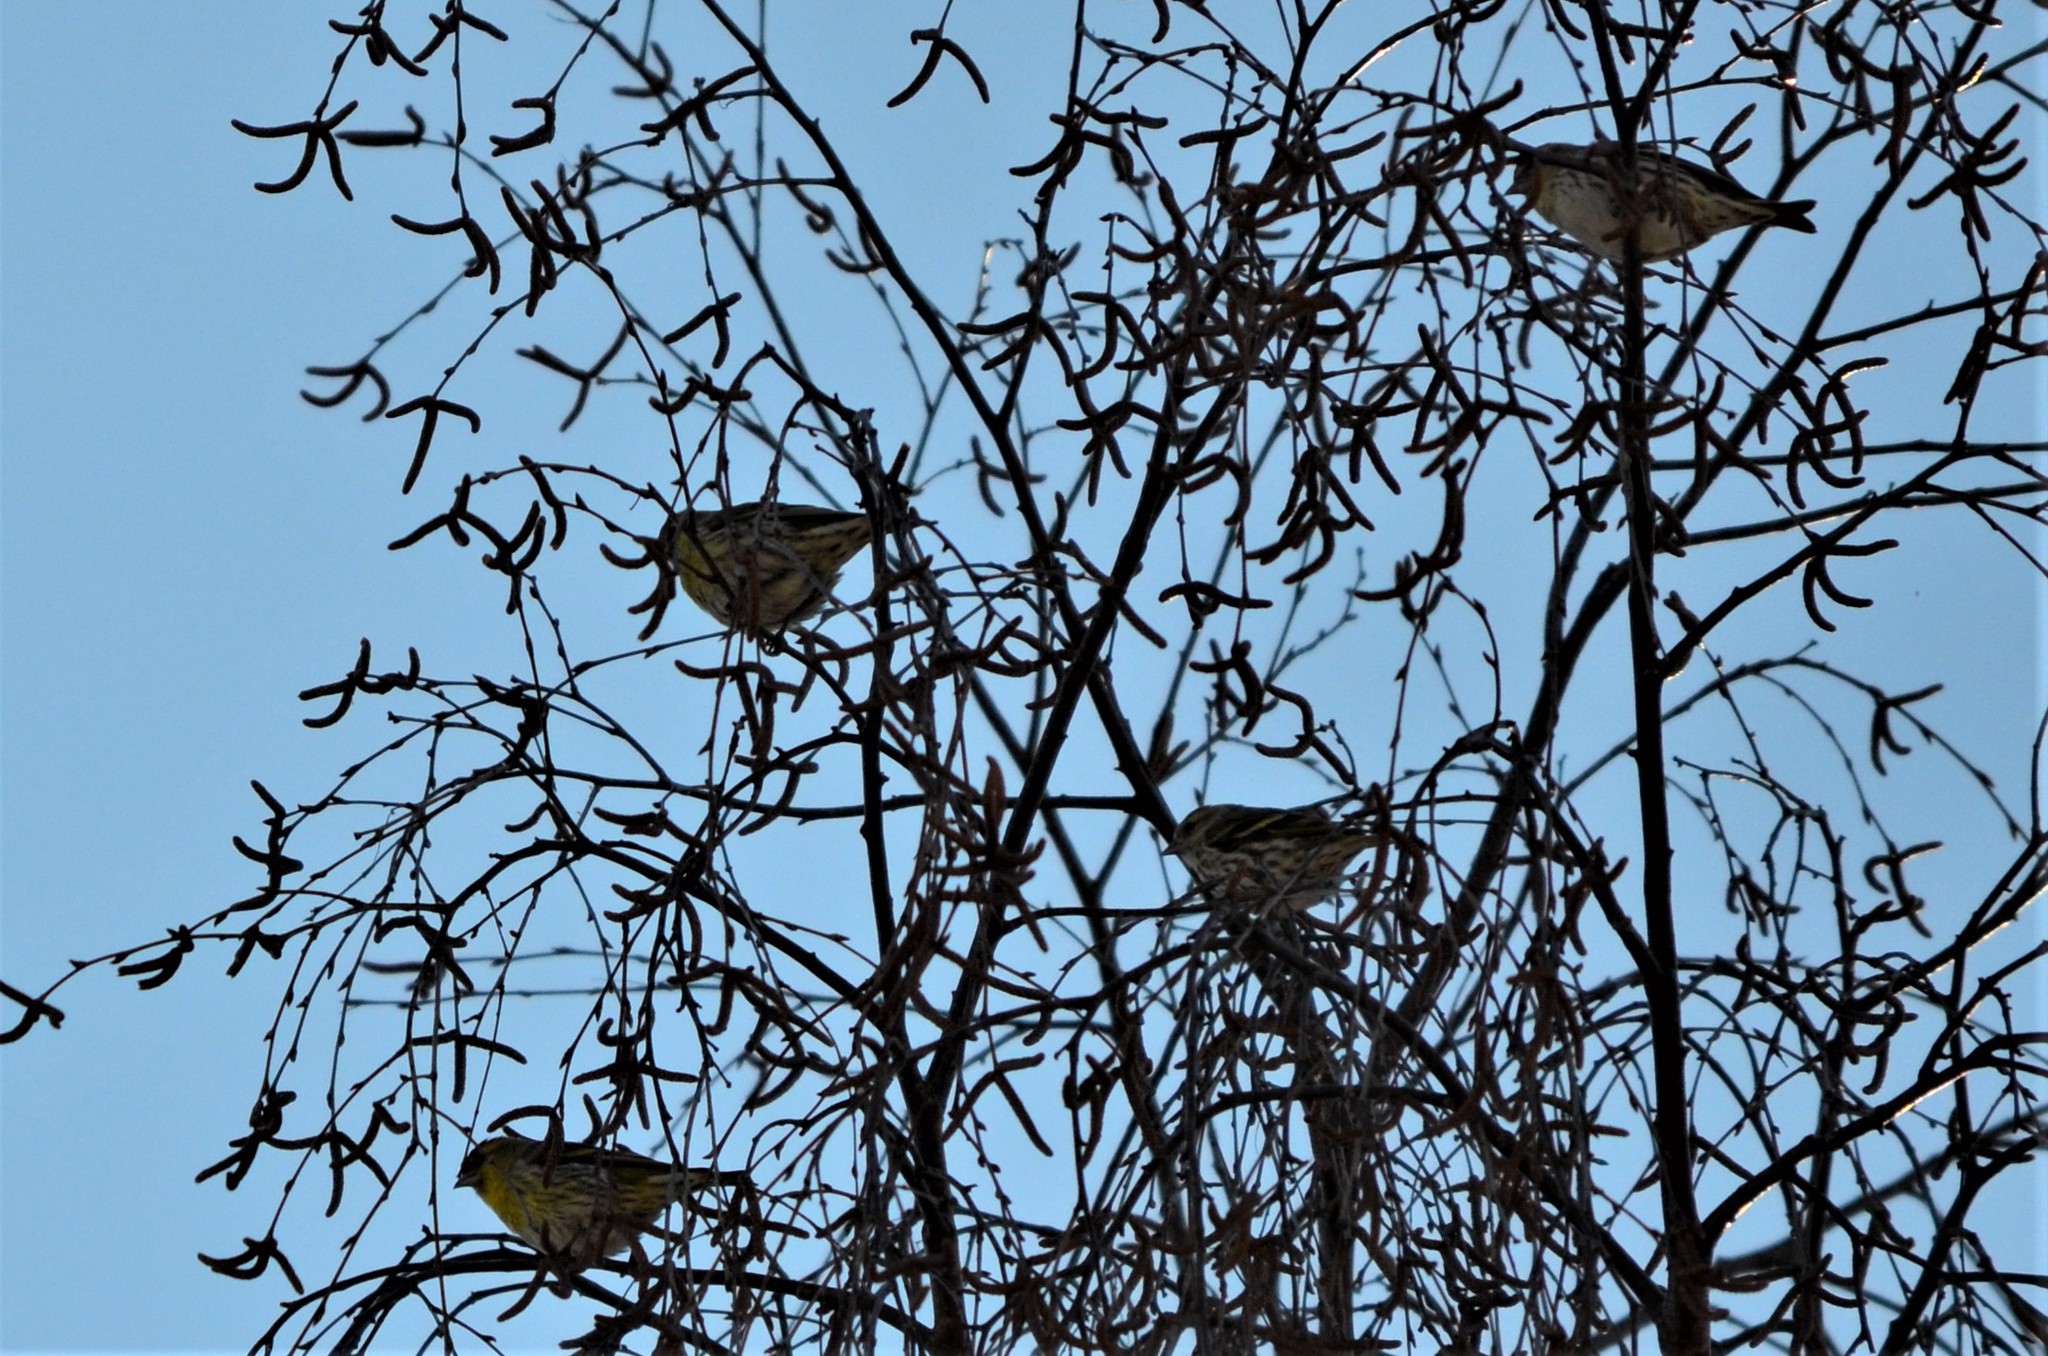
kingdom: Animalia
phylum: Chordata
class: Aves
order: Passeriformes
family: Fringillidae
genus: Spinus
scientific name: Spinus spinus
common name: Eurasian siskin
